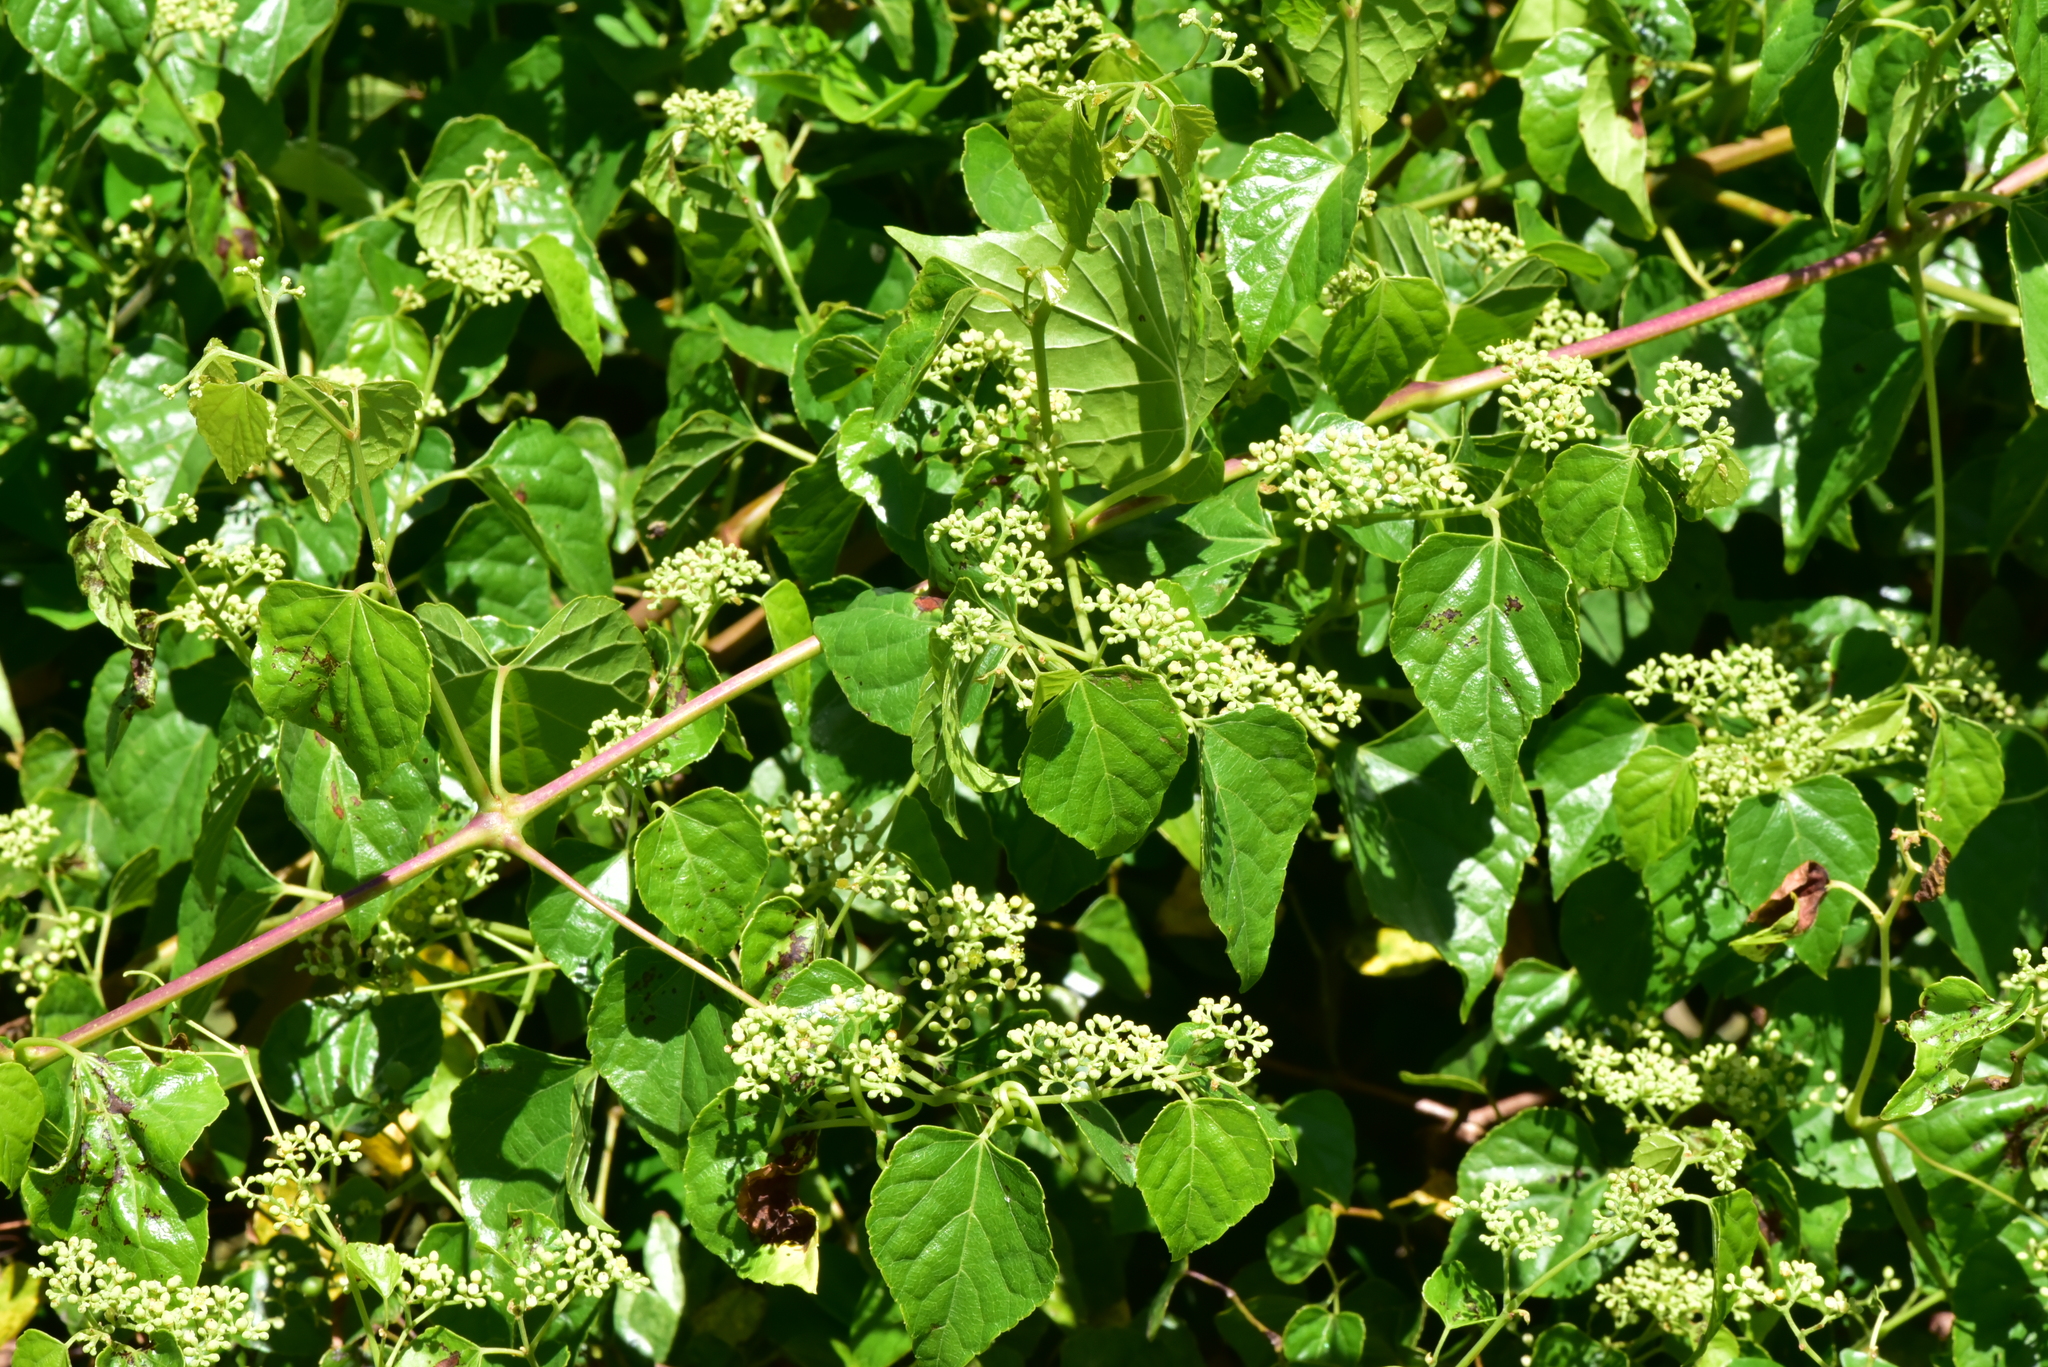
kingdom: Plantae
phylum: Tracheophyta
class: Magnoliopsida
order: Vitales
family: Vitaceae
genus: Ampelopsis
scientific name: Ampelopsis glandulosa
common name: Amur peppervine
